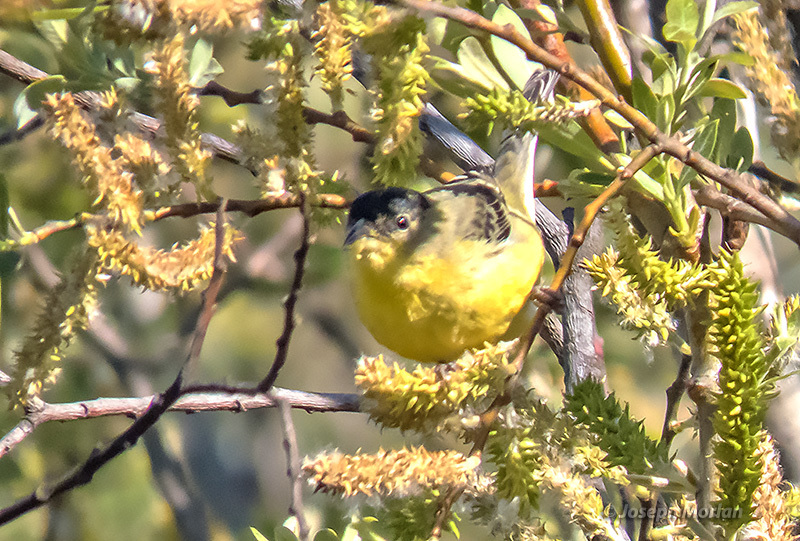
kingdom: Animalia
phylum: Chordata
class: Aves
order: Passeriformes
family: Fringillidae
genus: Spinus
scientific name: Spinus psaltria
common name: Lesser goldfinch
